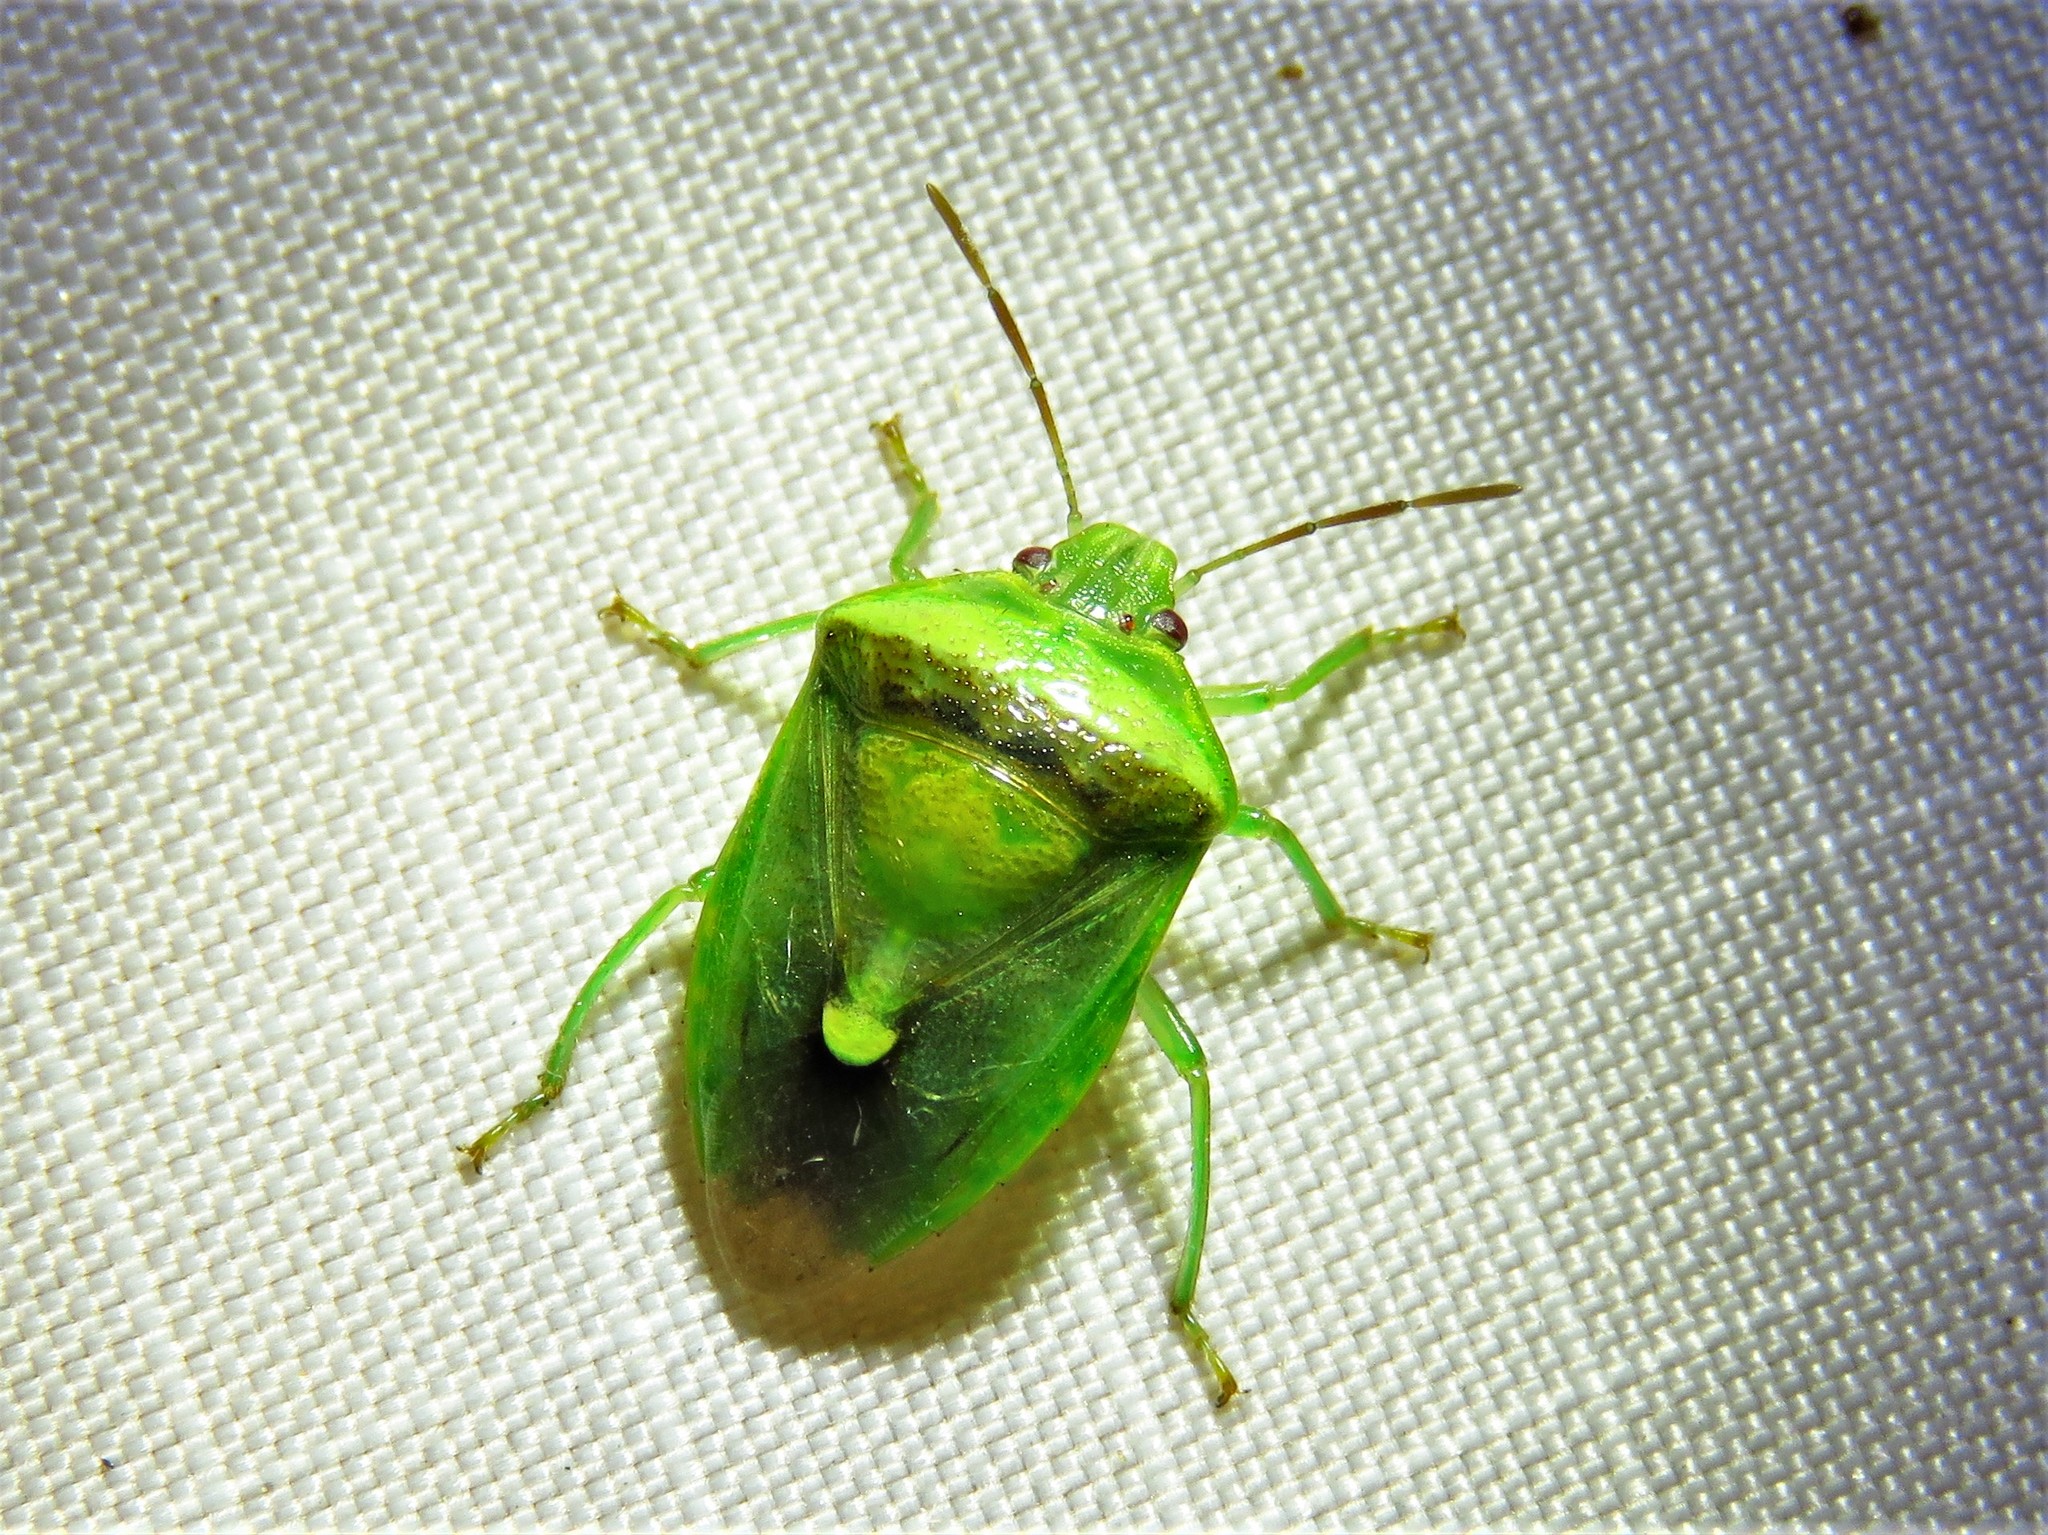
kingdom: Animalia
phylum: Arthropoda
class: Insecta
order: Hemiptera
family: Pentatomidae
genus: Banasa
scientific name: Banasa dimidiata
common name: Green burgundy stink bug
